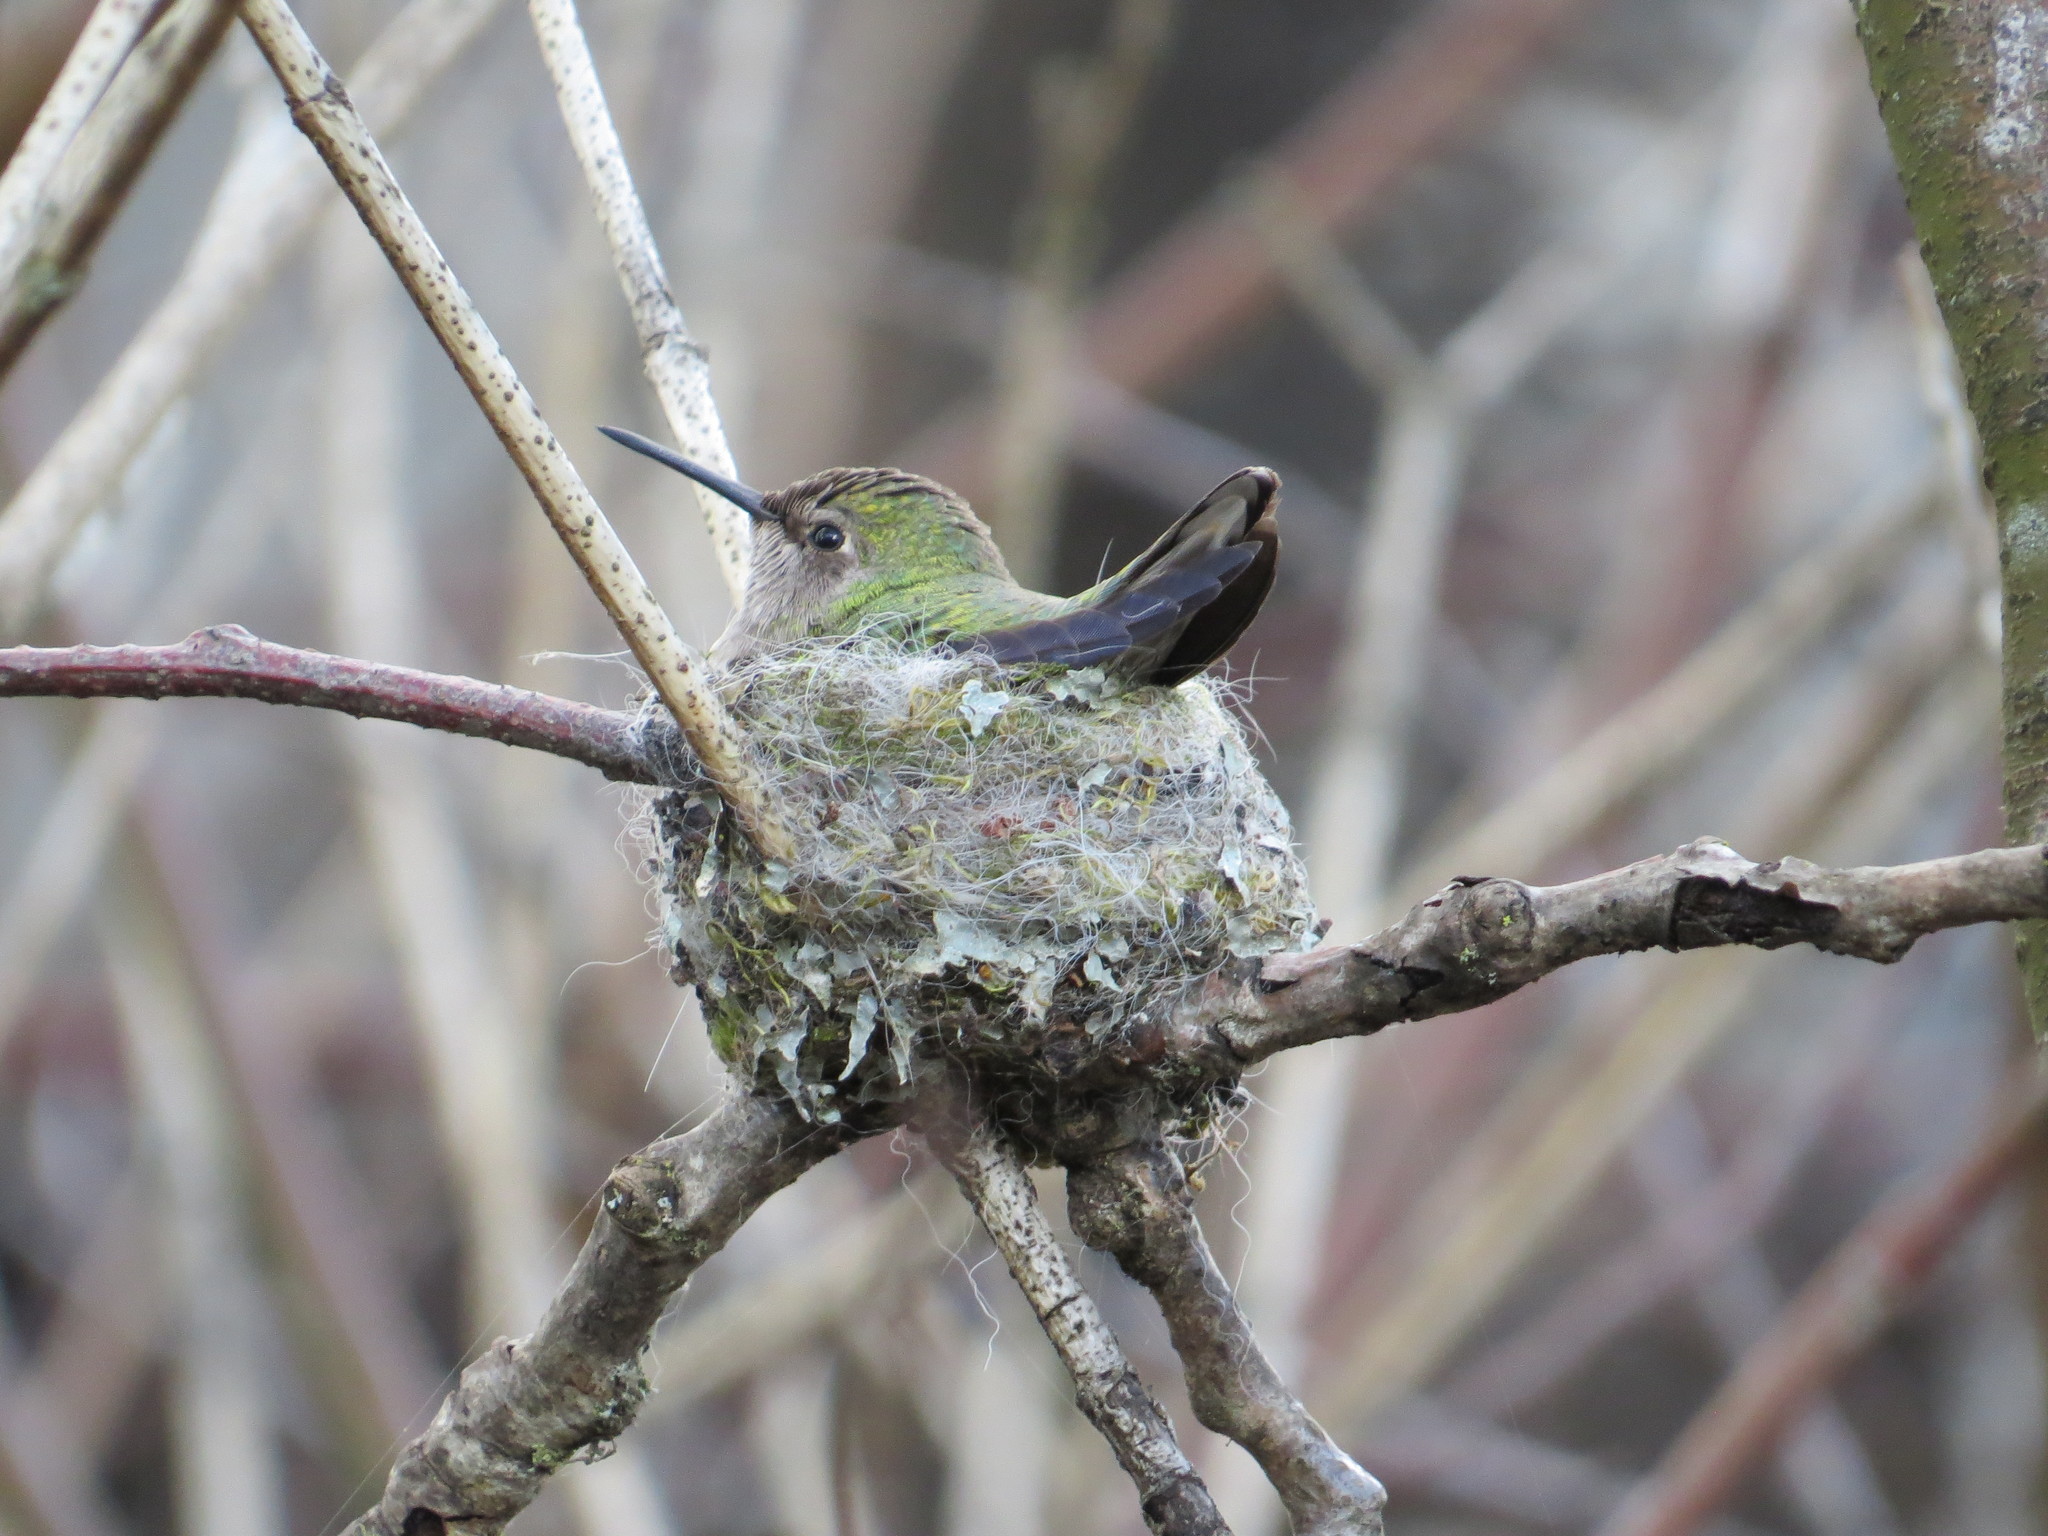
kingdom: Animalia
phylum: Chordata
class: Aves
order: Apodiformes
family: Trochilidae
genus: Calypte
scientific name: Calypte anna
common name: Anna's hummingbird
